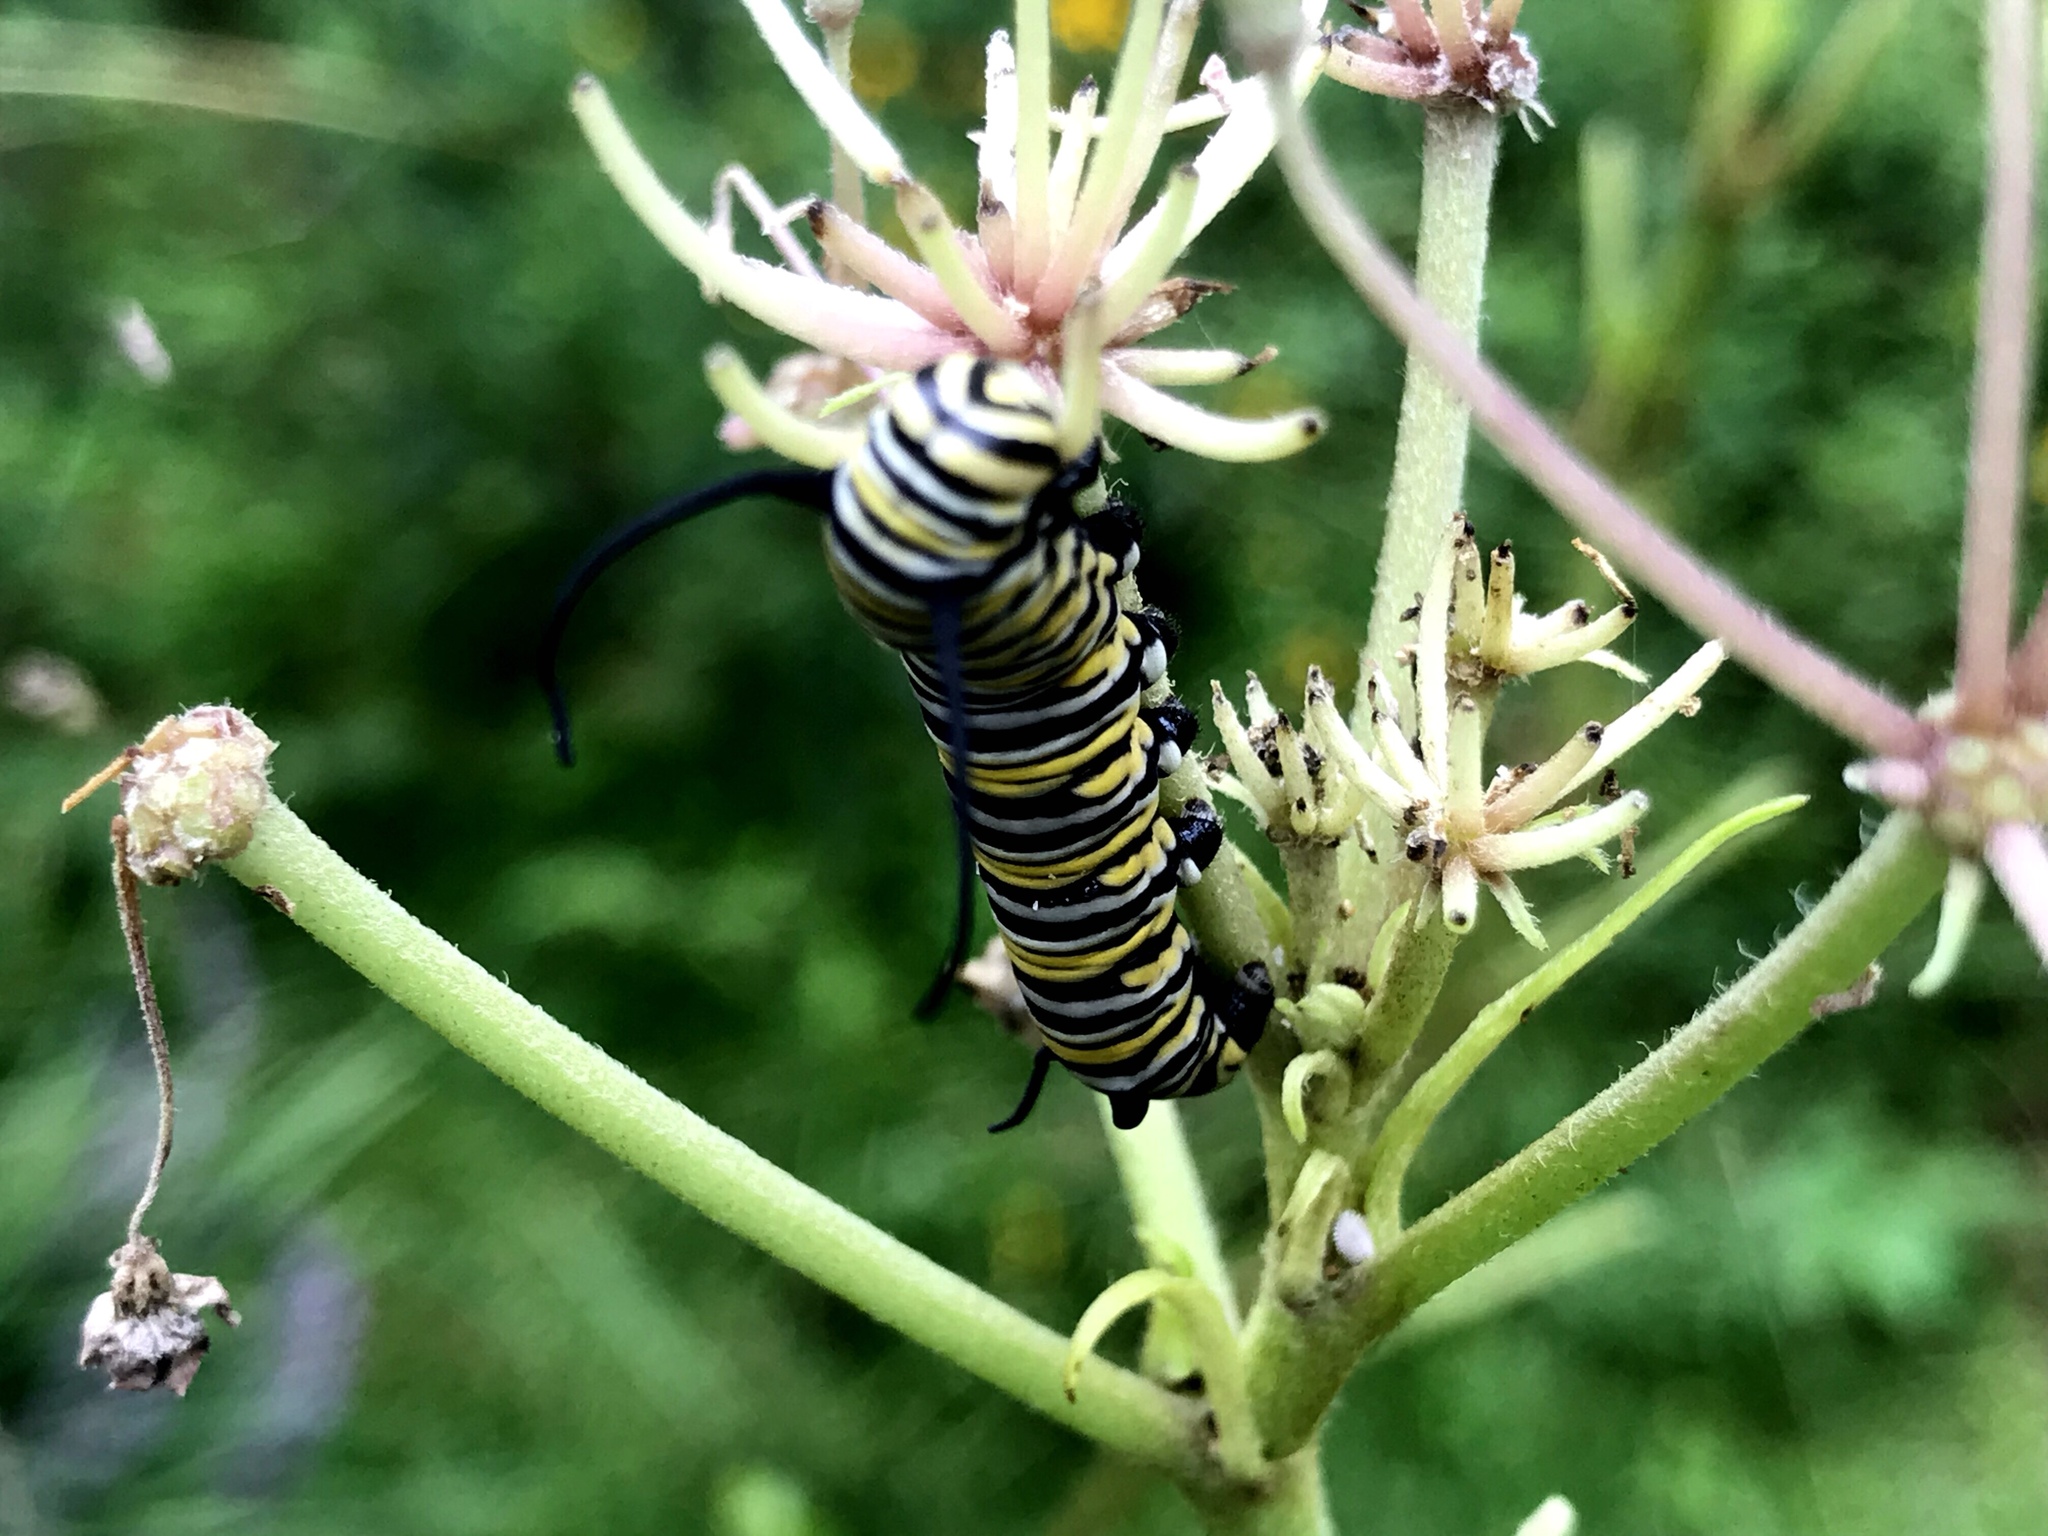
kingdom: Animalia
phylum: Arthropoda
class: Insecta
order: Lepidoptera
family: Nymphalidae
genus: Danaus
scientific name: Danaus plexippus
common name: Monarch
